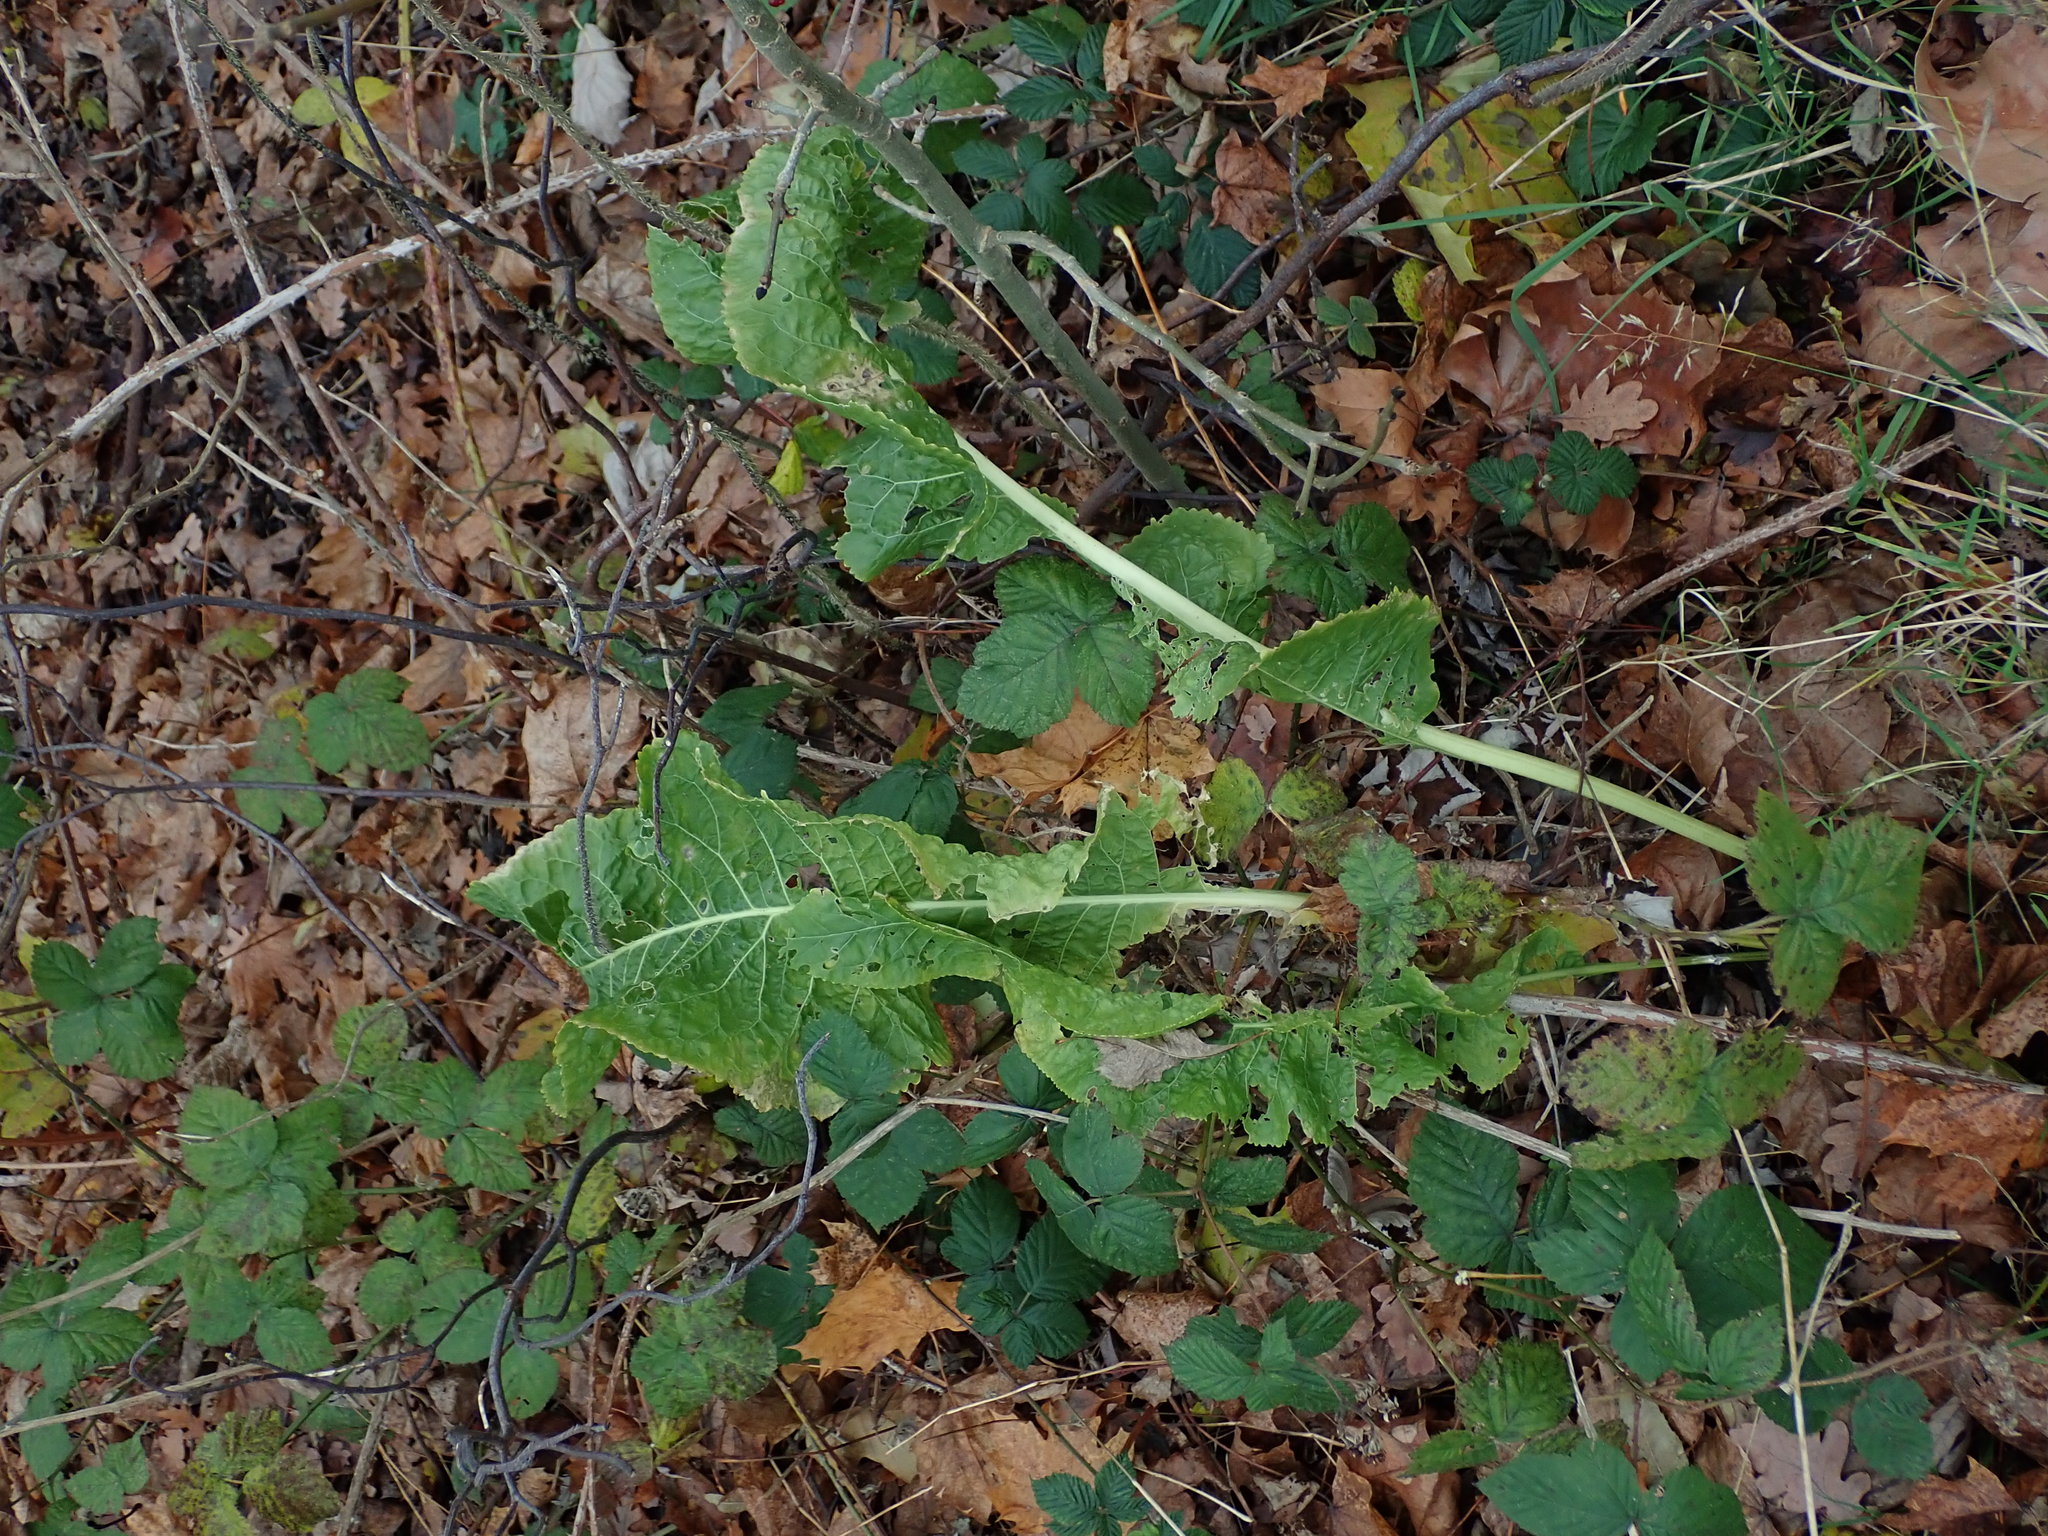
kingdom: Plantae
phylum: Tracheophyta
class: Magnoliopsida
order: Brassicales
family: Brassicaceae
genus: Armoracia
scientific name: Armoracia rusticana
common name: Horseradish
